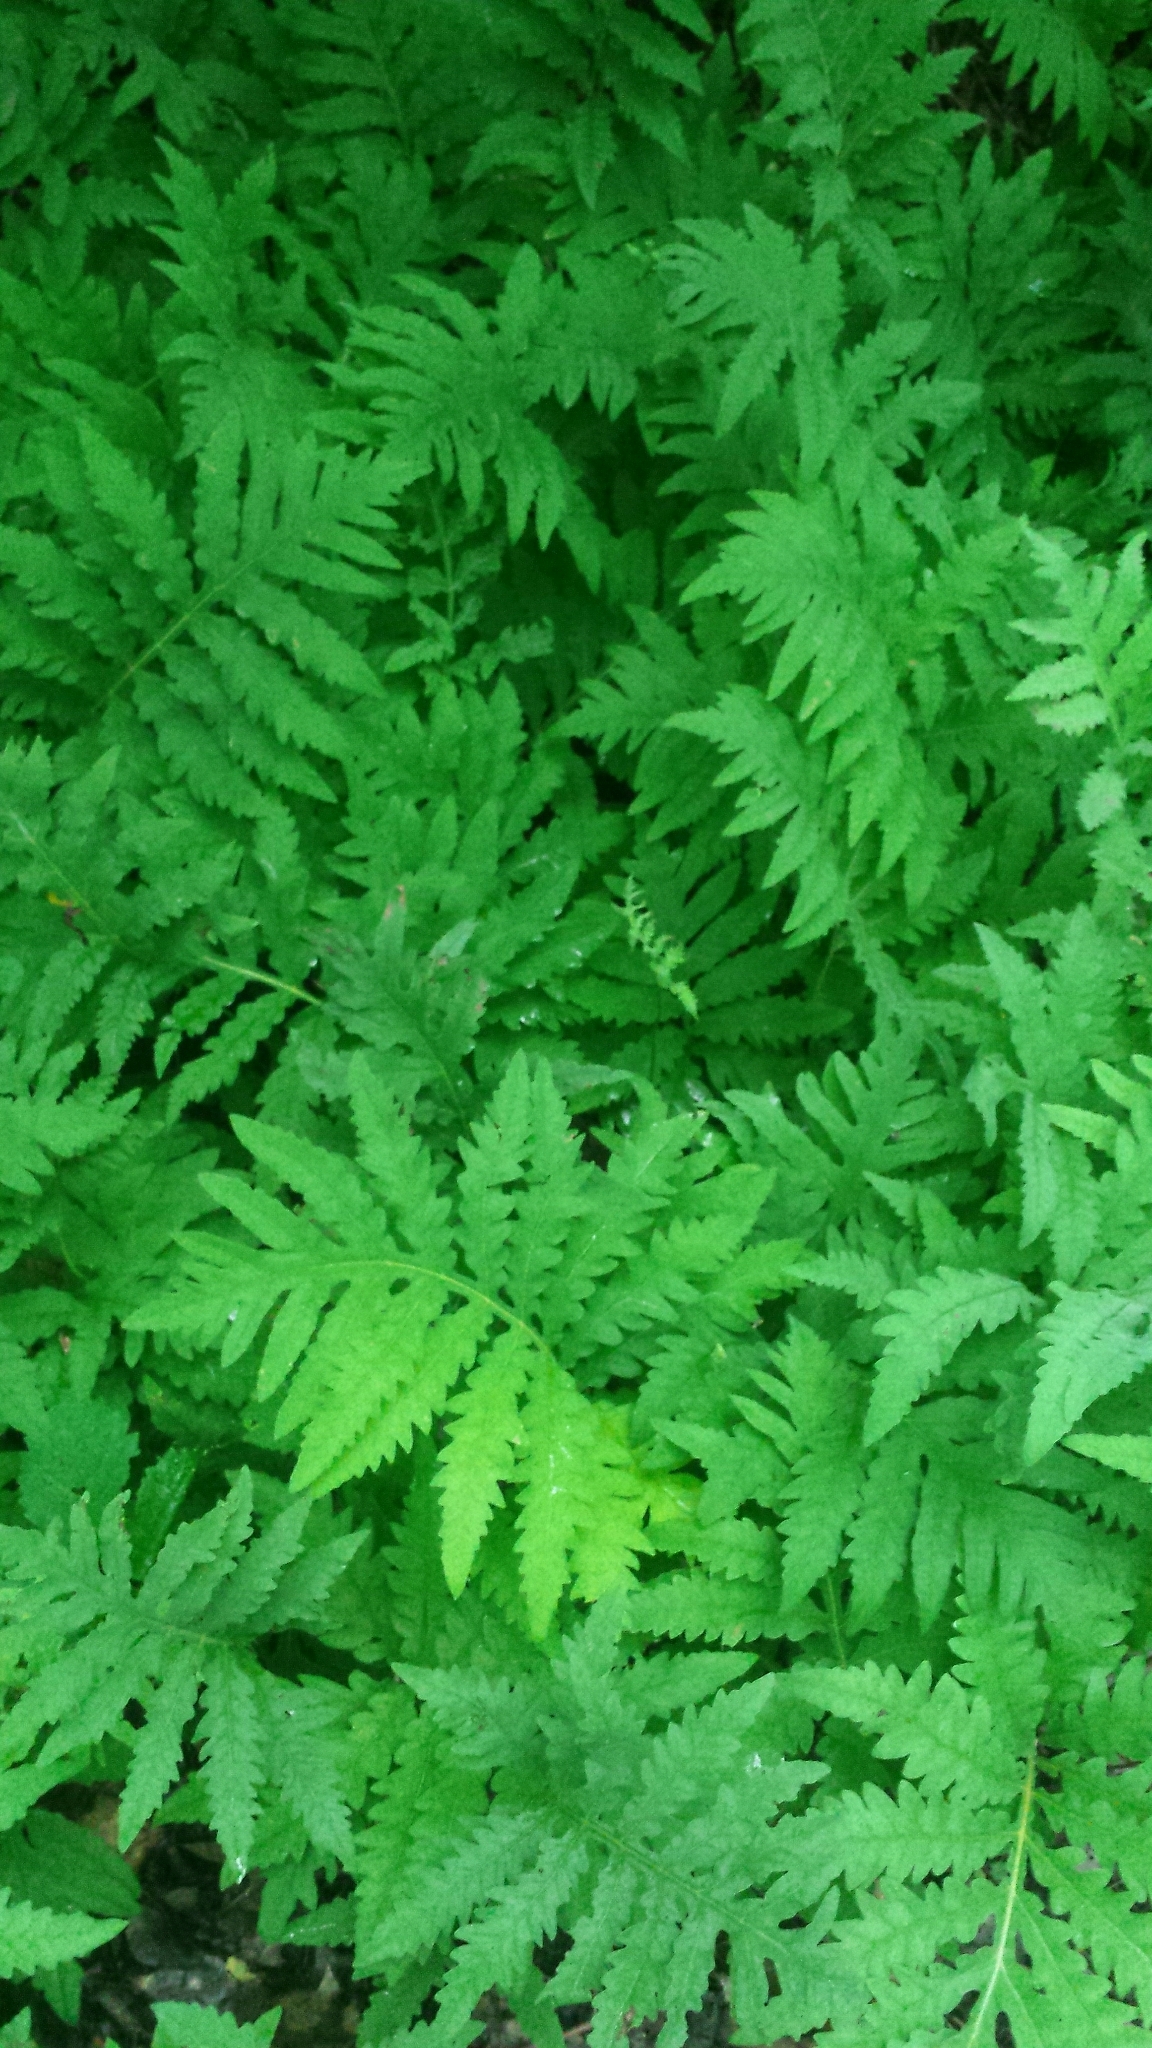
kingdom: Plantae
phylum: Tracheophyta
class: Polypodiopsida
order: Polypodiales
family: Onocleaceae
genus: Onoclea
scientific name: Onoclea sensibilis
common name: Sensitive fern
